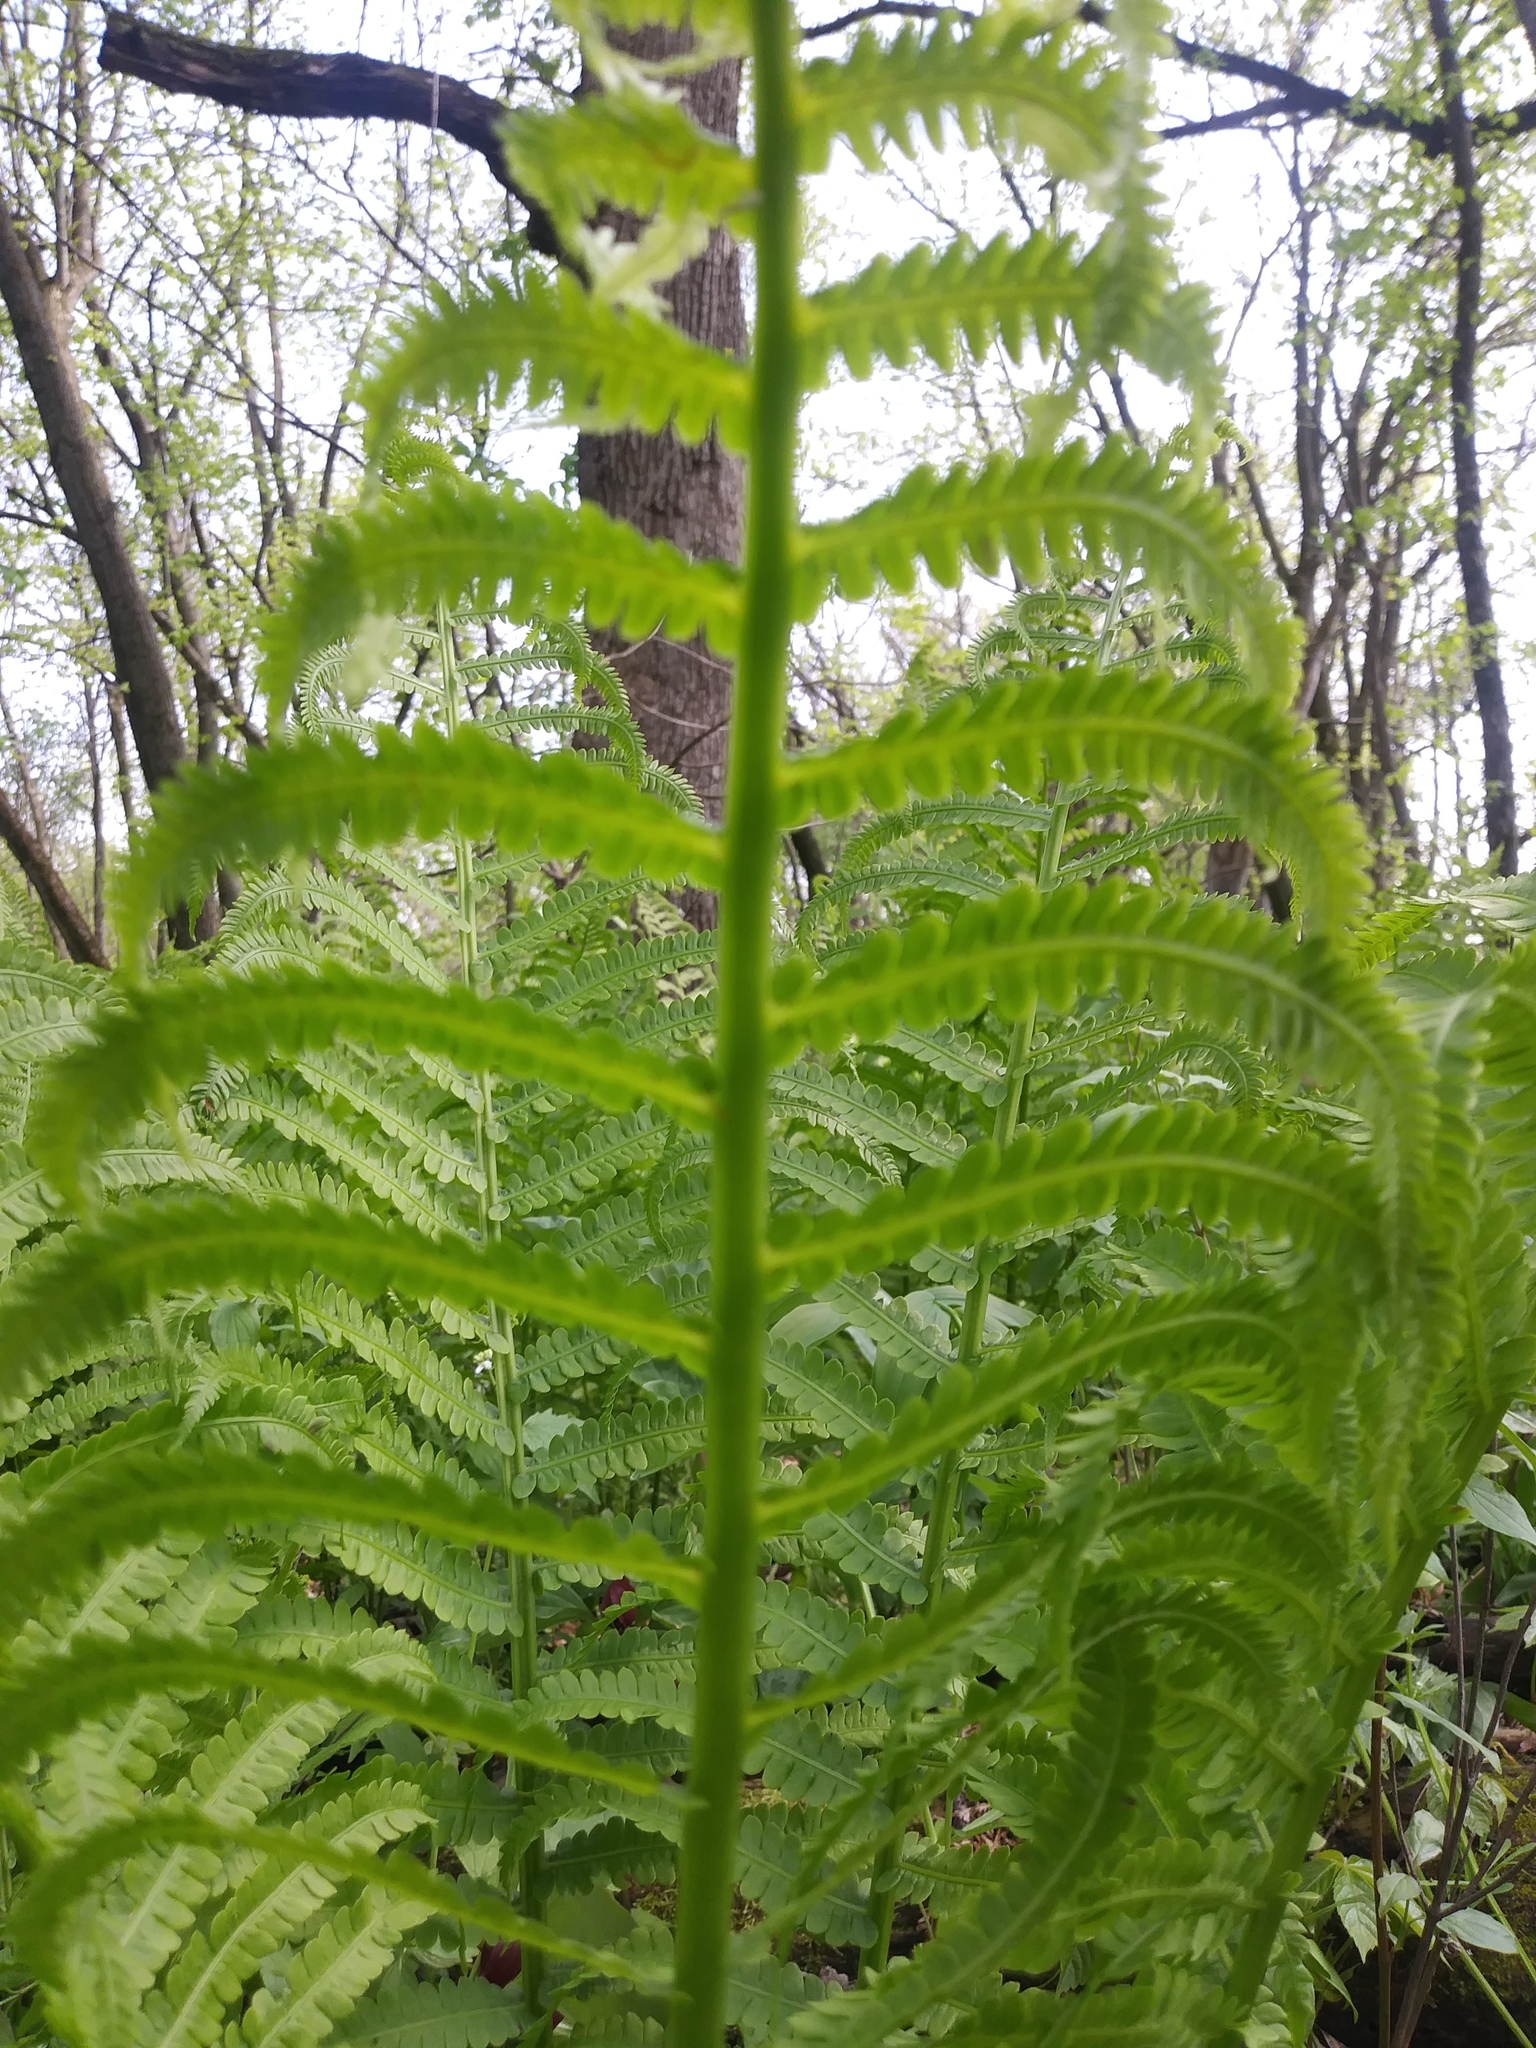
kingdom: Plantae
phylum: Tracheophyta
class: Polypodiopsida
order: Polypodiales
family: Onocleaceae
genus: Matteuccia
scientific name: Matteuccia struthiopteris
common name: Ostrich fern
